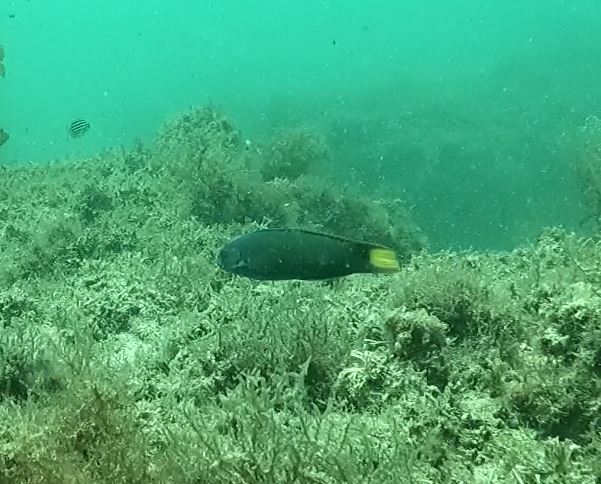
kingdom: Animalia
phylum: Chordata
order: Perciformes
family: Labridae
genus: Thalassoma
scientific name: Thalassoma lunare
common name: Blue wrasse
